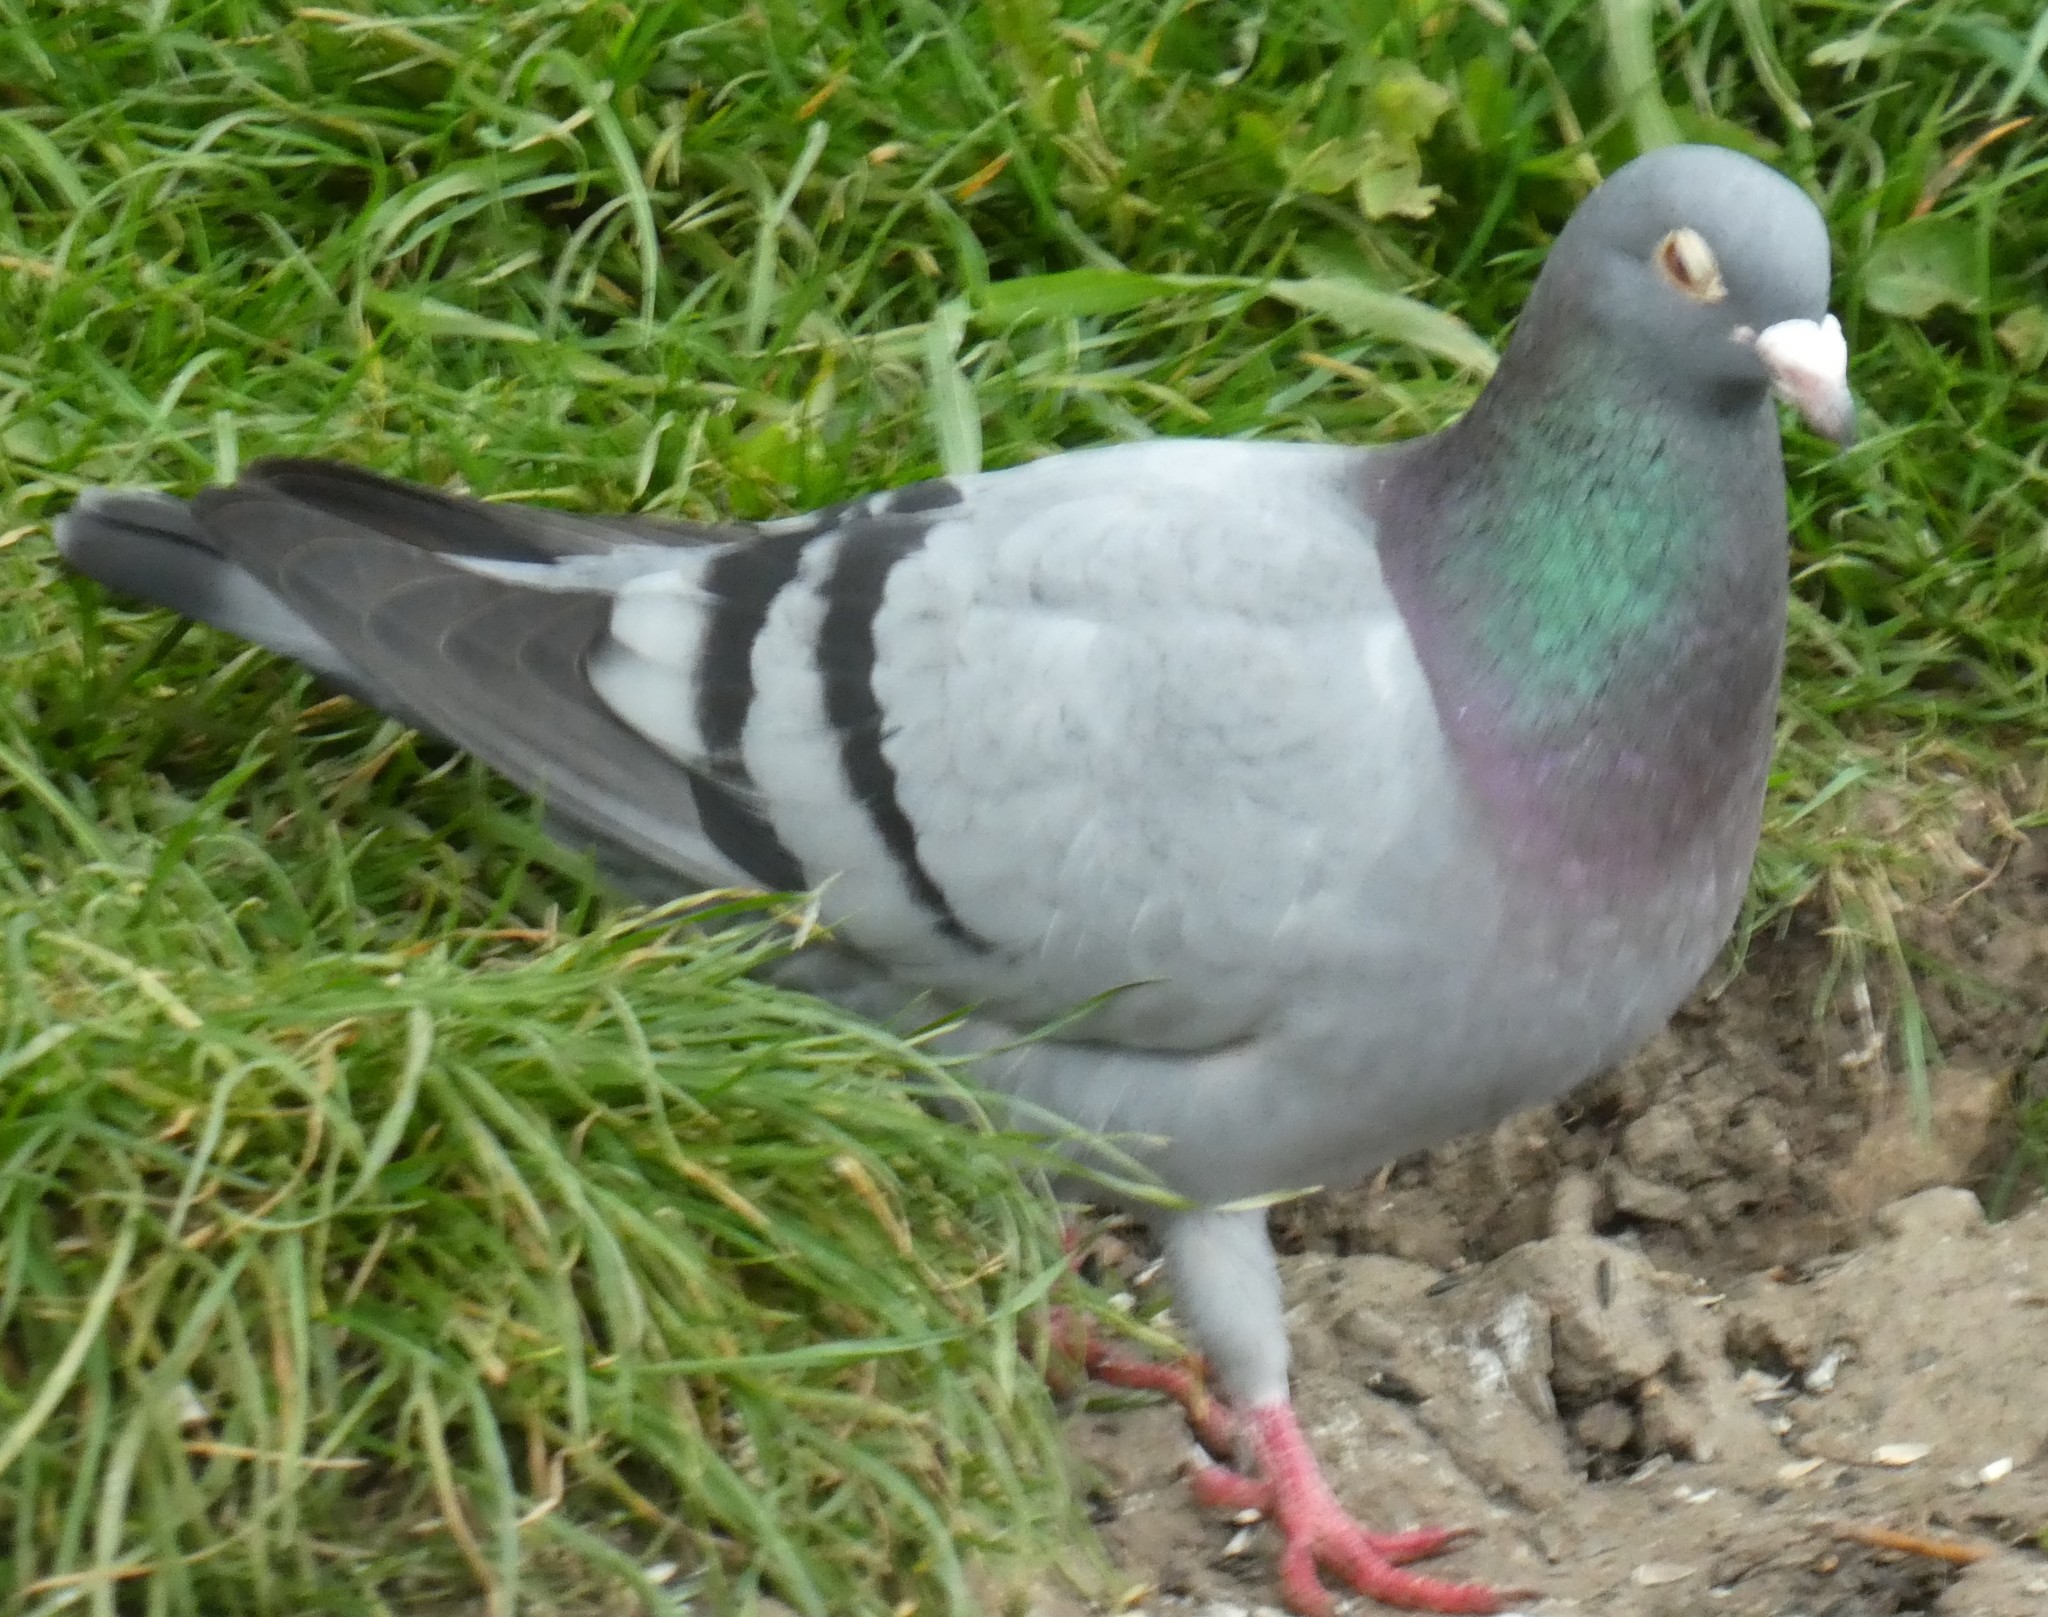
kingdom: Animalia
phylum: Chordata
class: Aves
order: Columbiformes
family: Columbidae
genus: Columba
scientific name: Columba livia
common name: Rock pigeon
